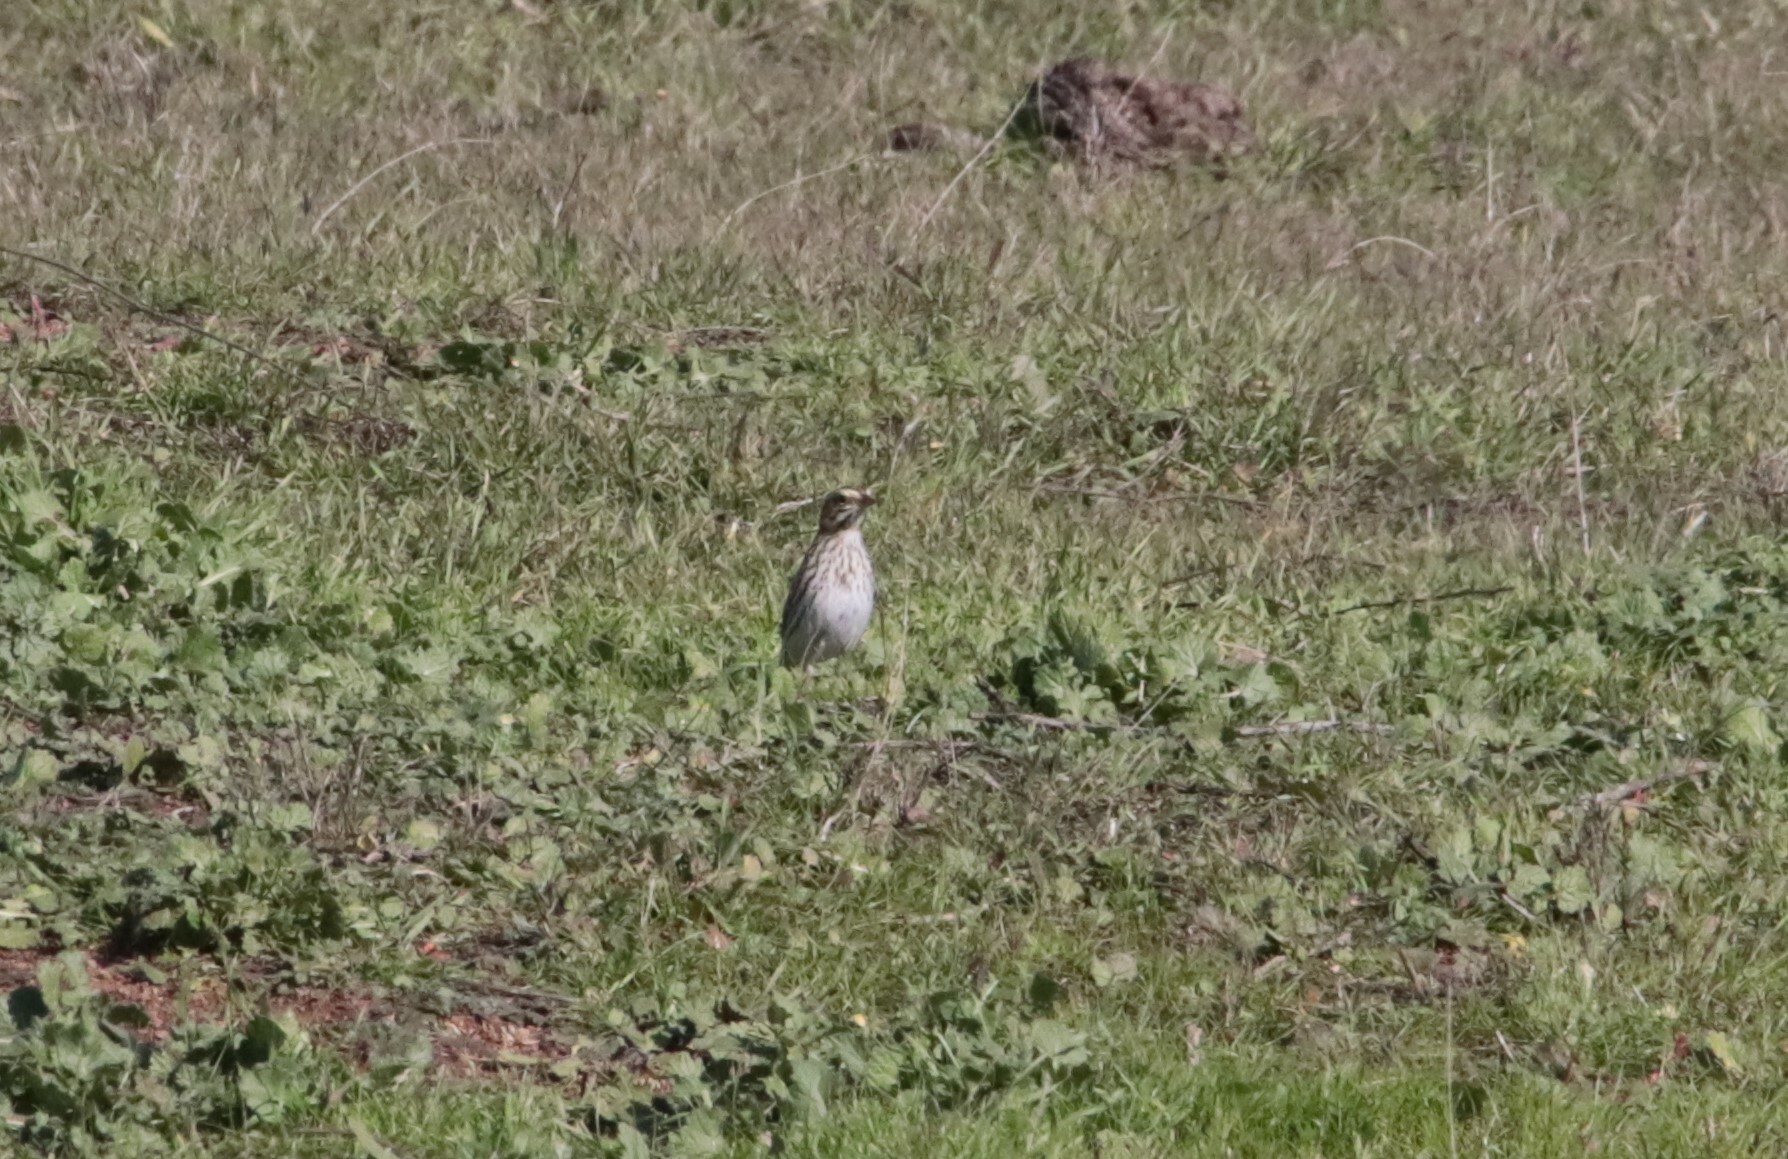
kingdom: Animalia
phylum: Chordata
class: Aves
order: Passeriformes
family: Passerellidae
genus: Pooecetes
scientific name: Pooecetes gramineus
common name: Vesper sparrow
